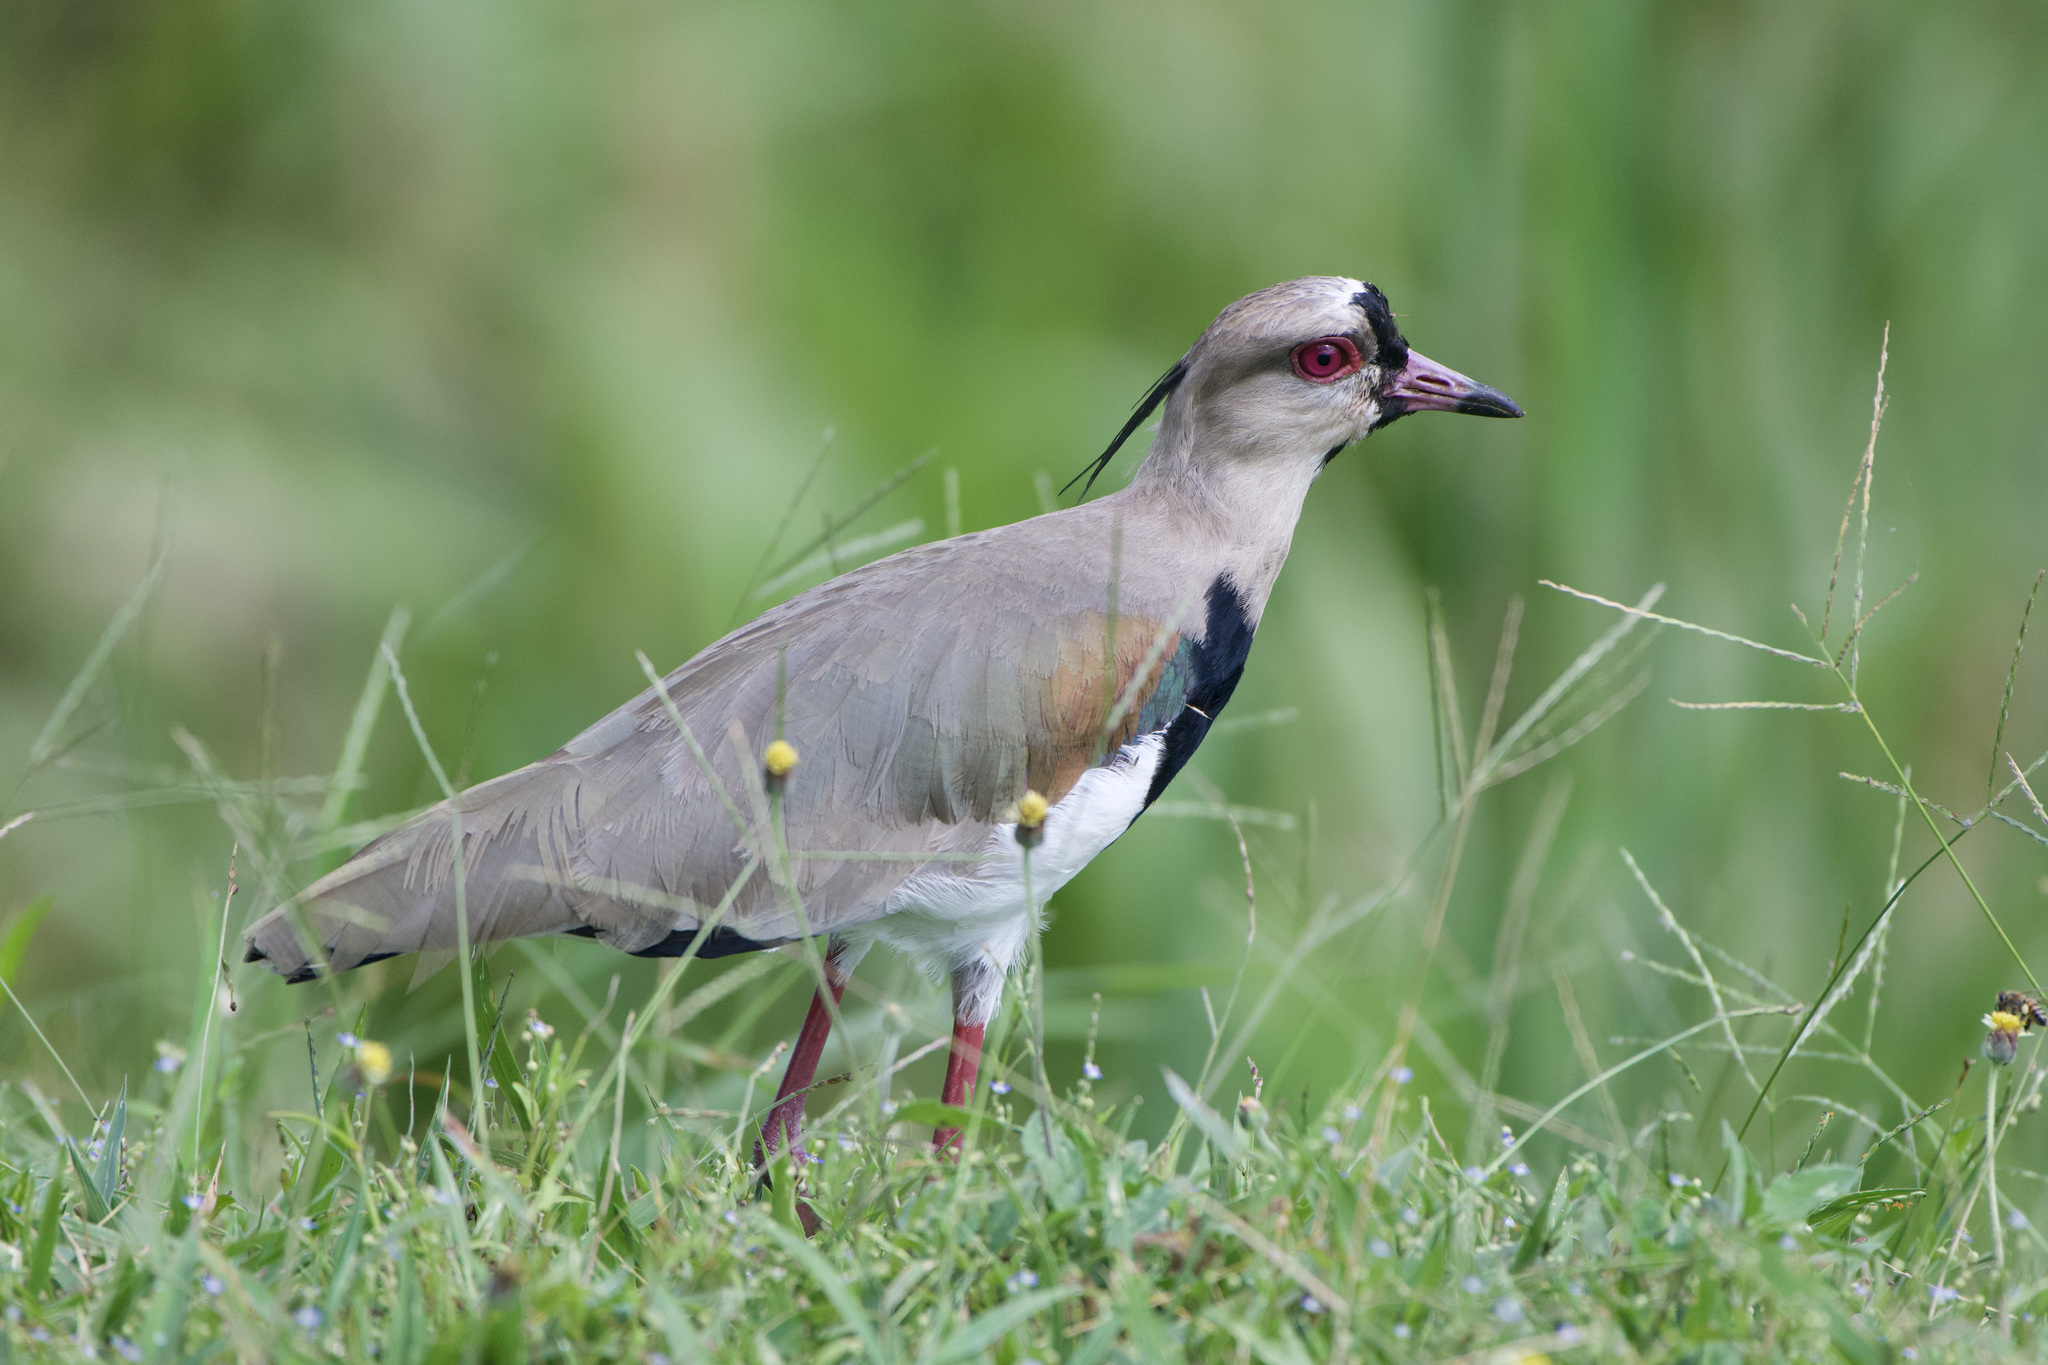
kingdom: Animalia
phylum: Chordata
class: Aves
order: Charadriiformes
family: Charadriidae
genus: Vanellus
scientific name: Vanellus chilensis
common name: Southern lapwing
